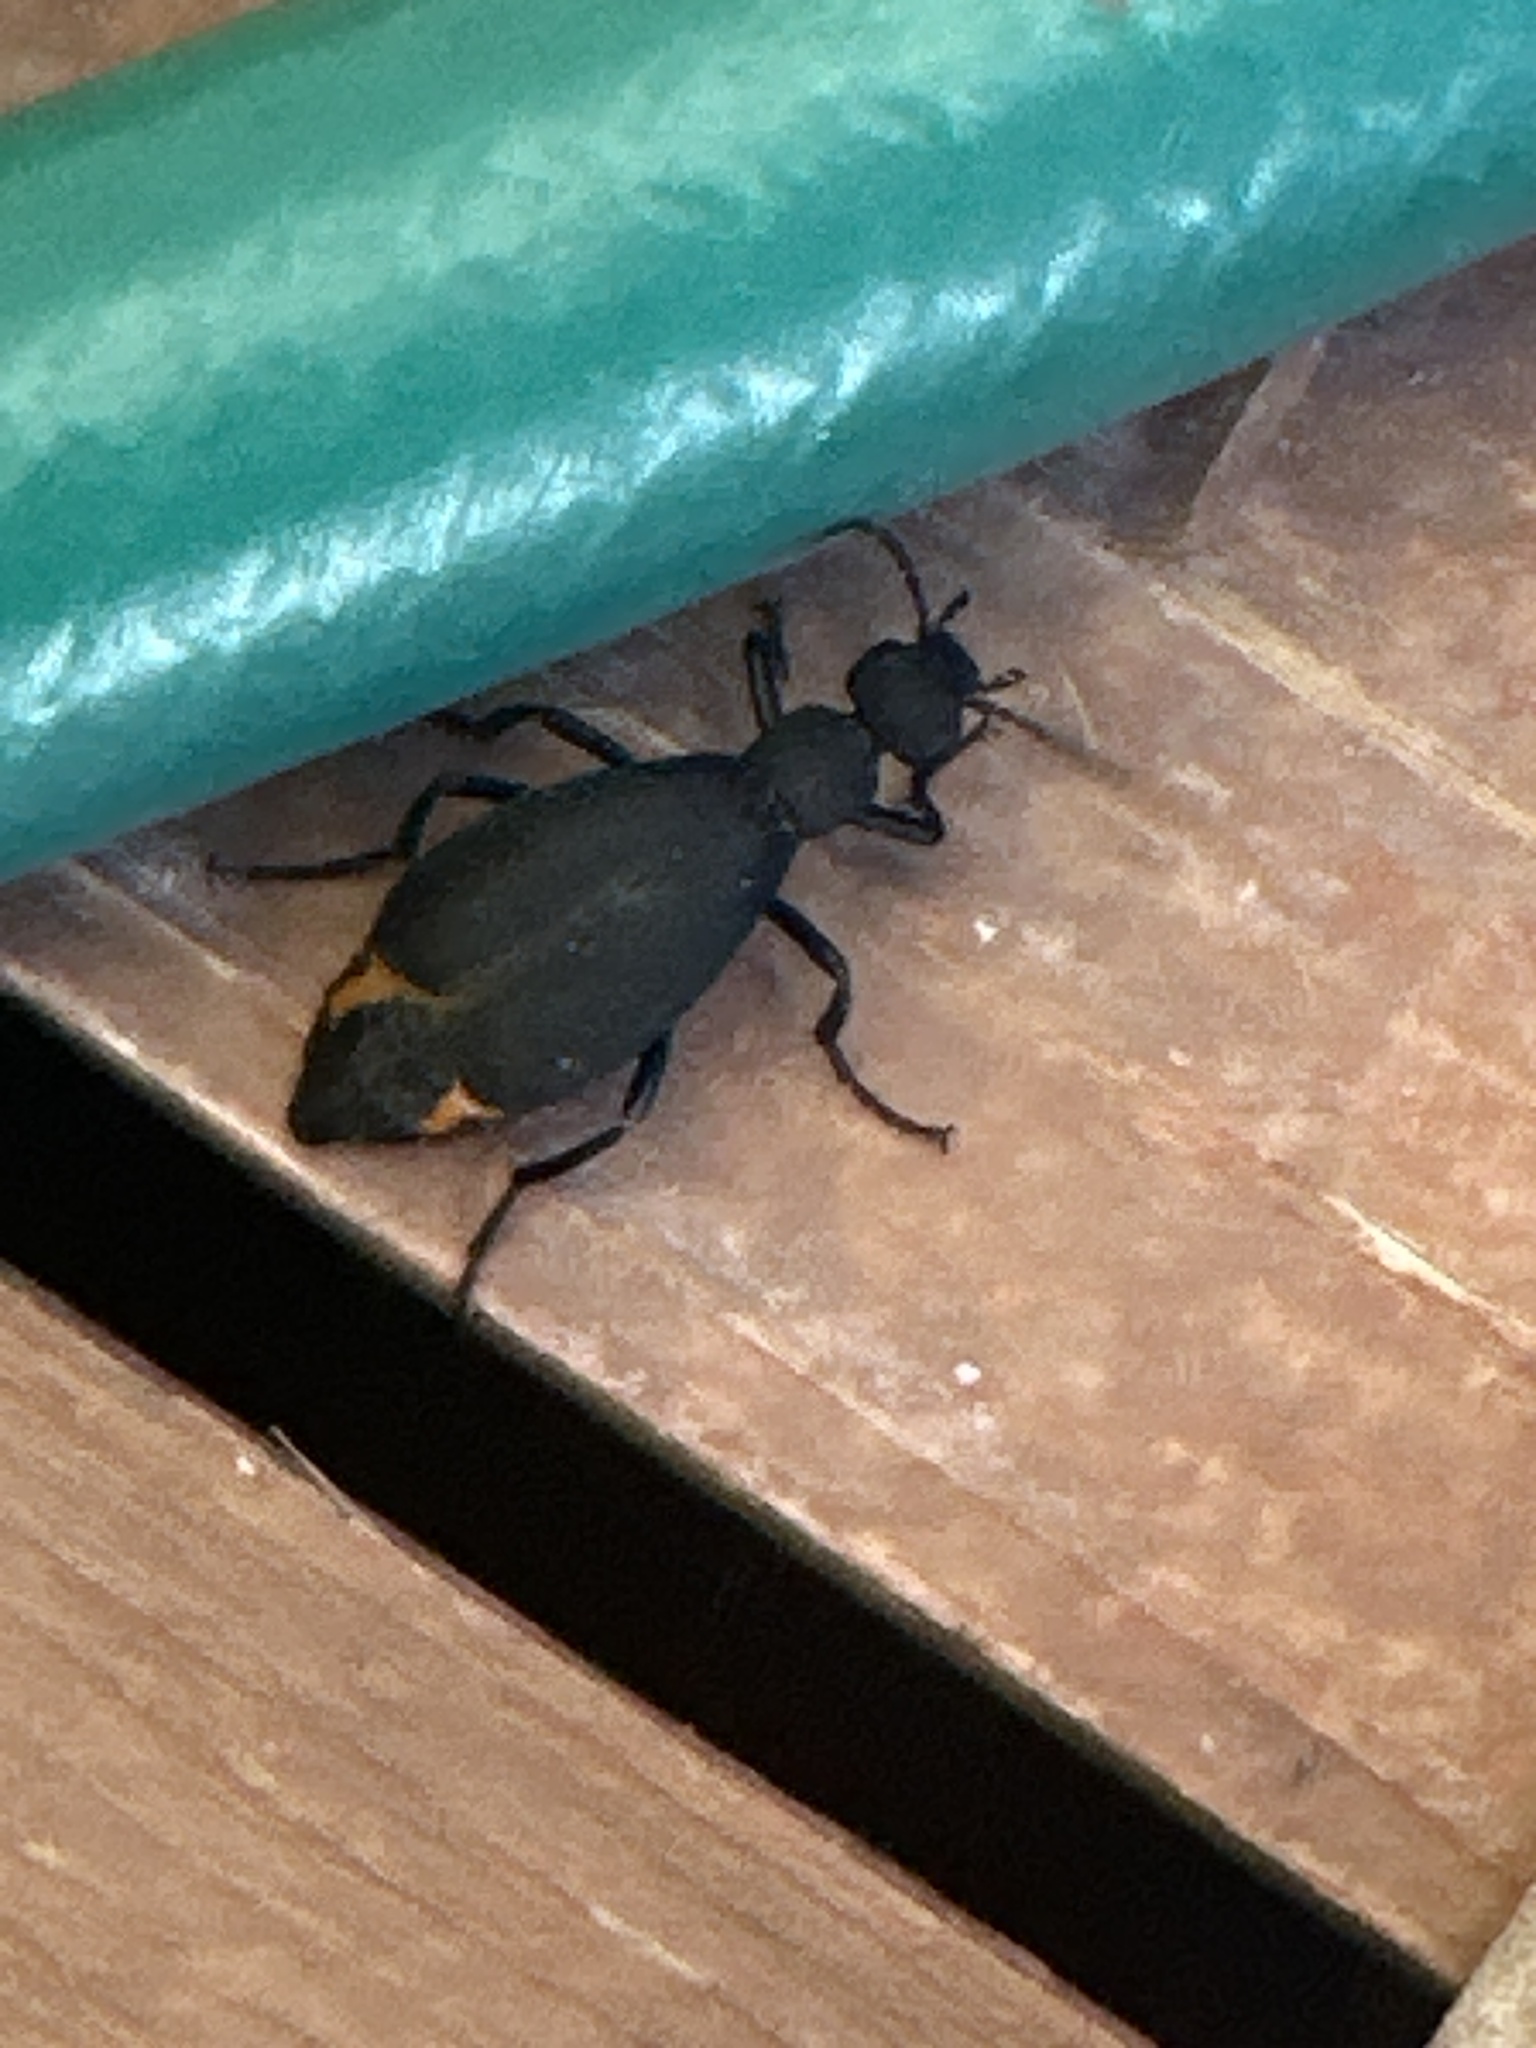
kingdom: Animalia
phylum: Arthropoda
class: Insecta
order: Coleoptera
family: Meloidae
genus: Epicauta
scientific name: Epicauta conferta
